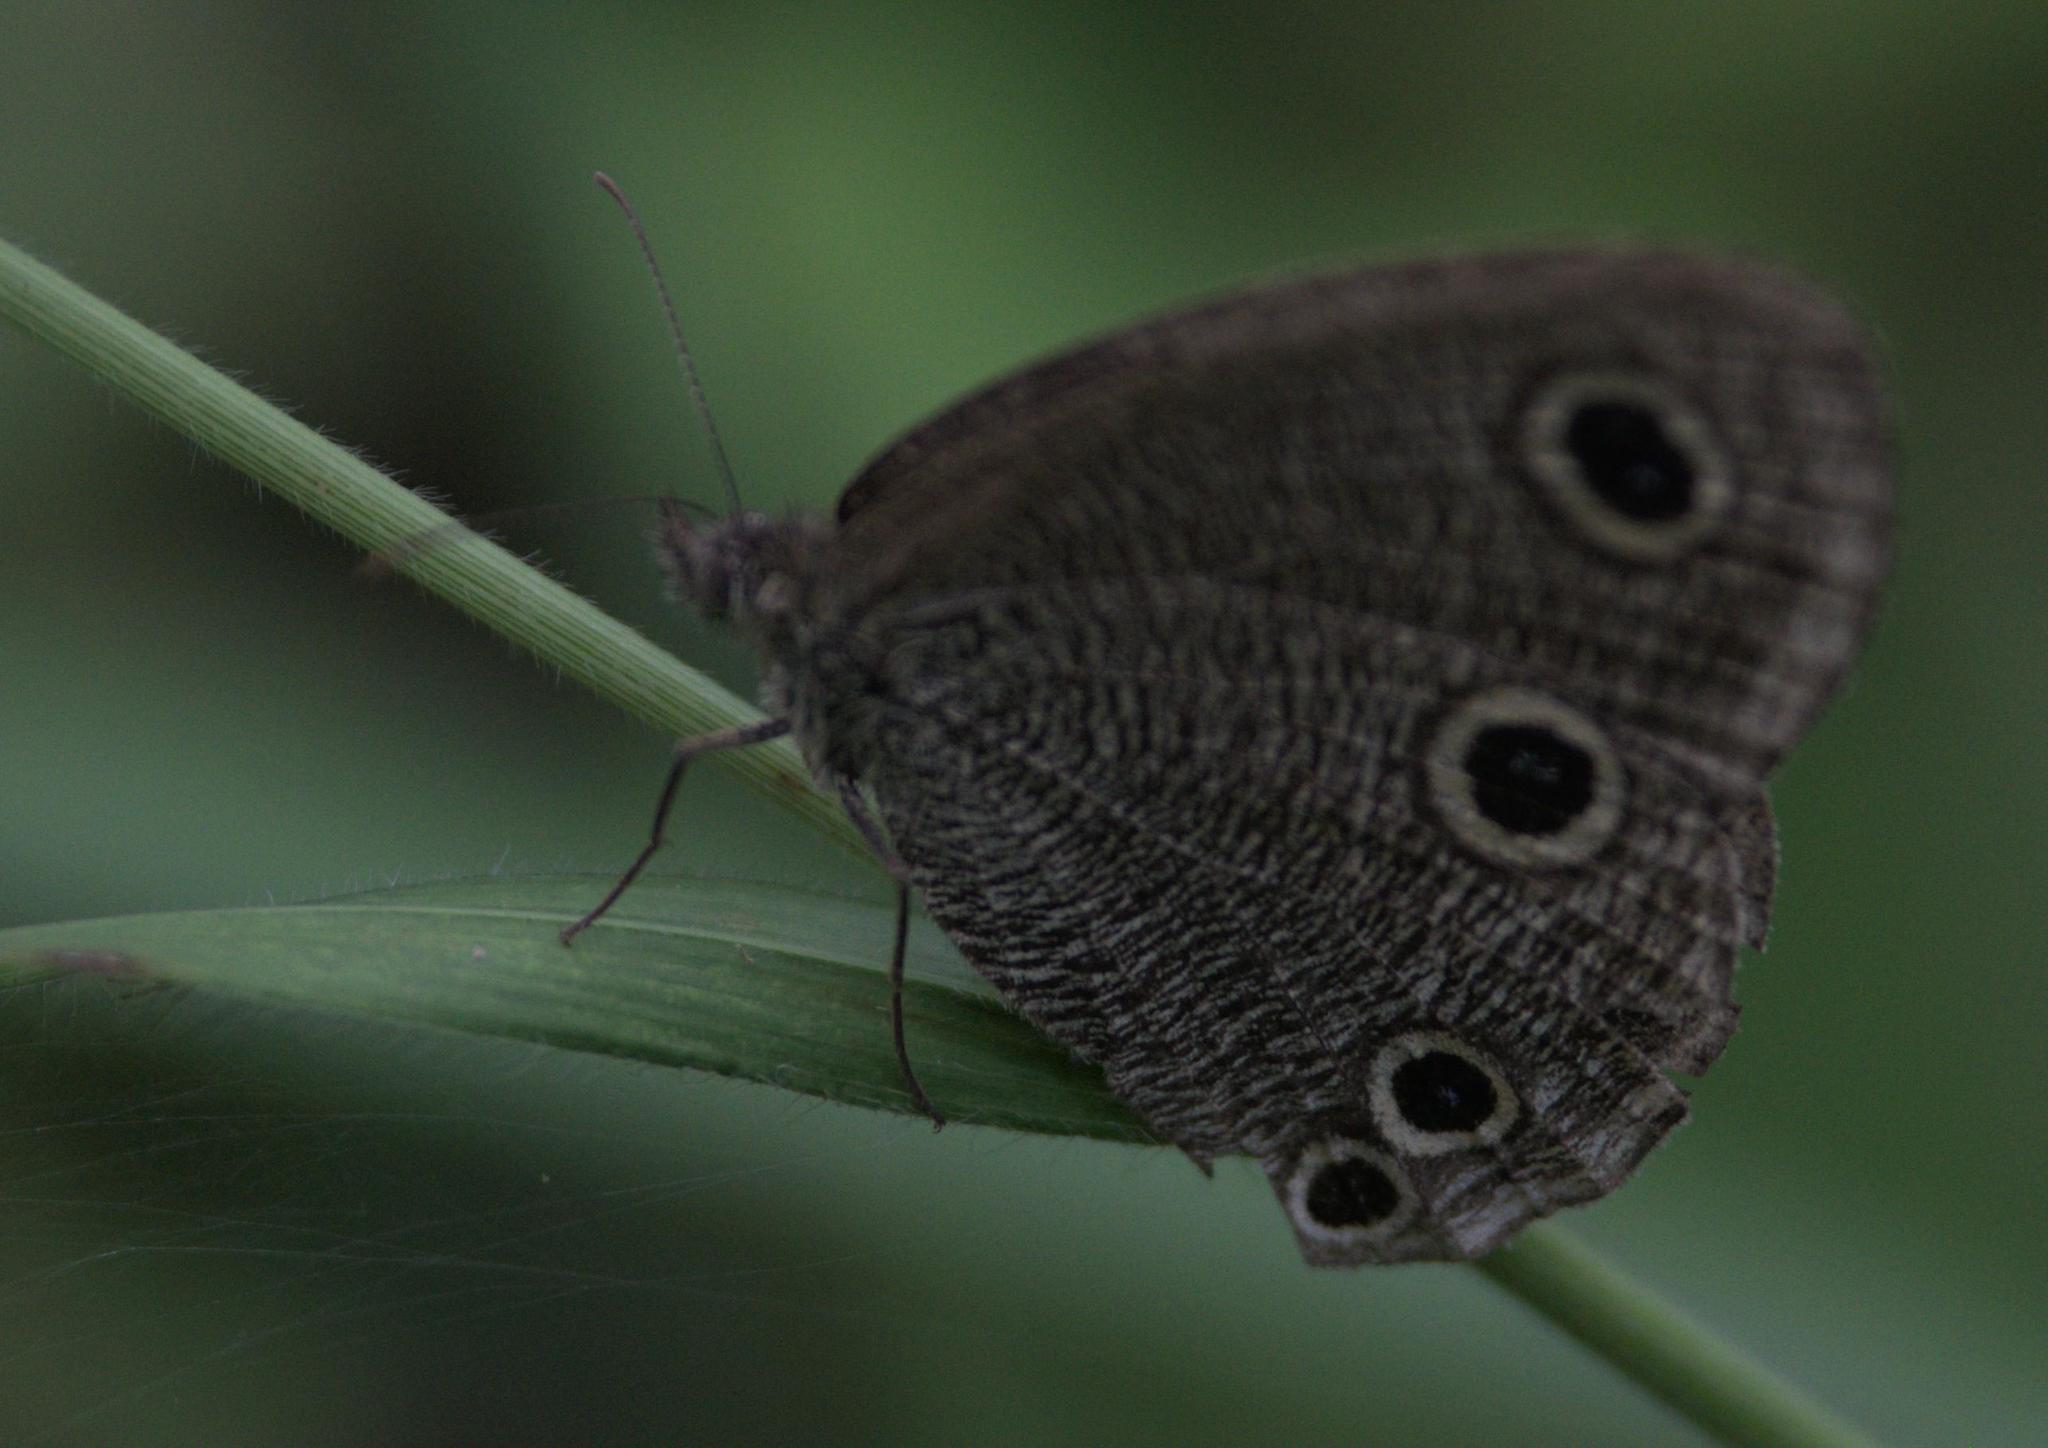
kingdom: Animalia
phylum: Arthropoda
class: Insecta
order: Lepidoptera
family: Nymphalidae
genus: Ypthima
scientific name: Ypthima nareda
